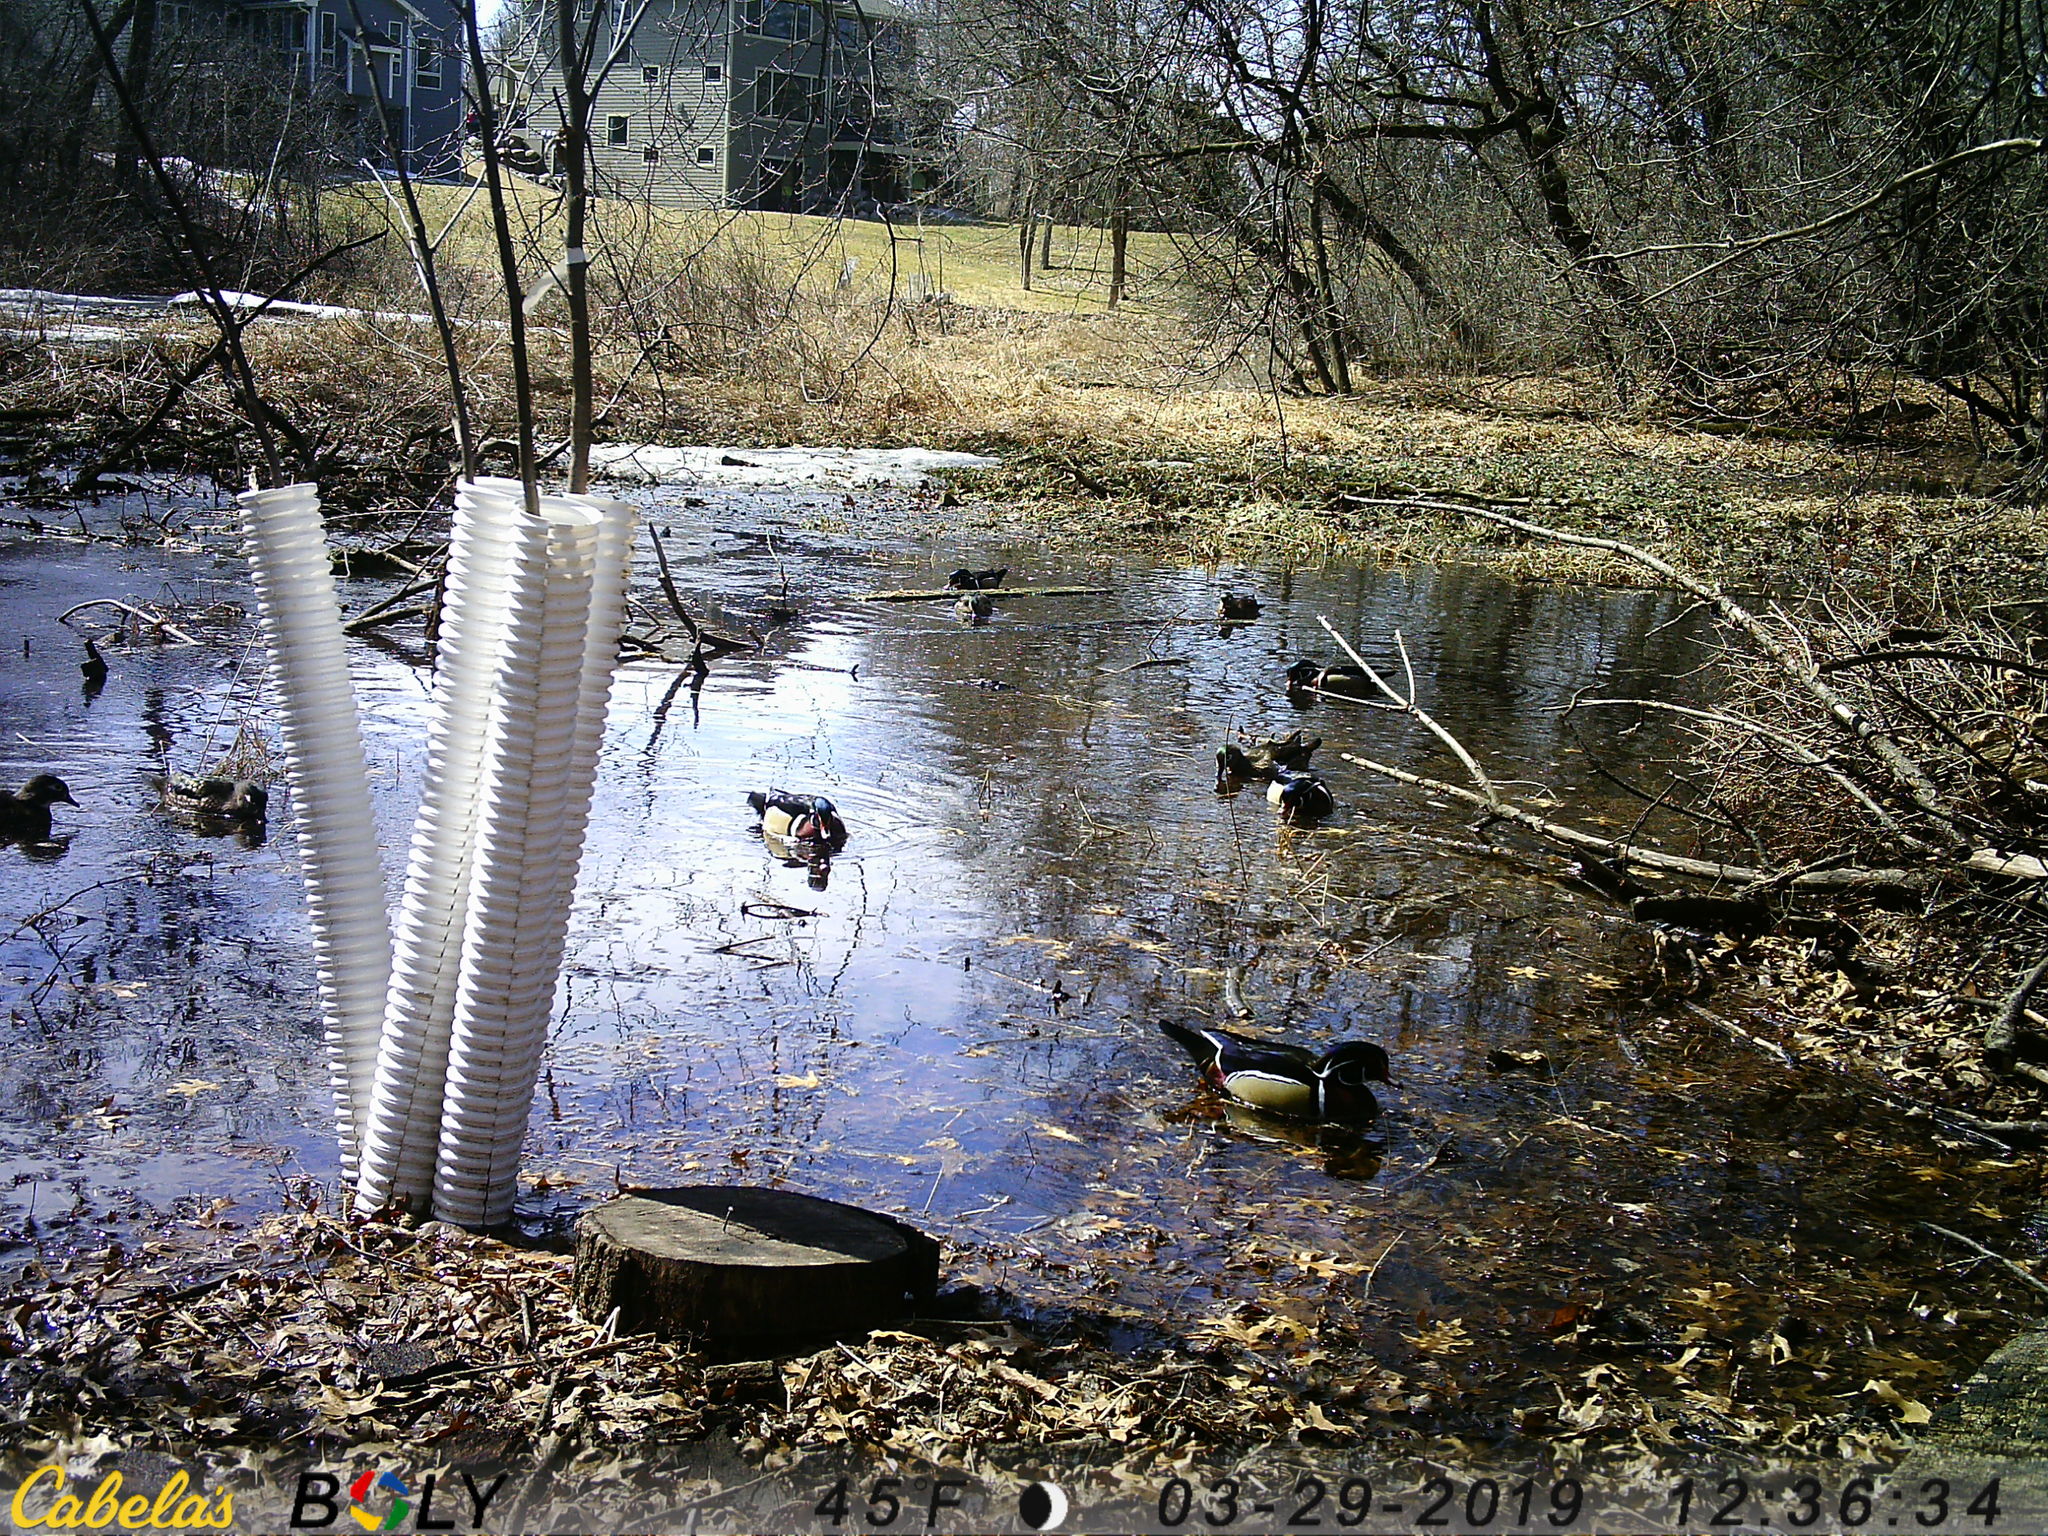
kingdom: Animalia
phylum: Chordata
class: Aves
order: Anseriformes
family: Anatidae
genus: Aix
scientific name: Aix sponsa
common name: Wood duck
